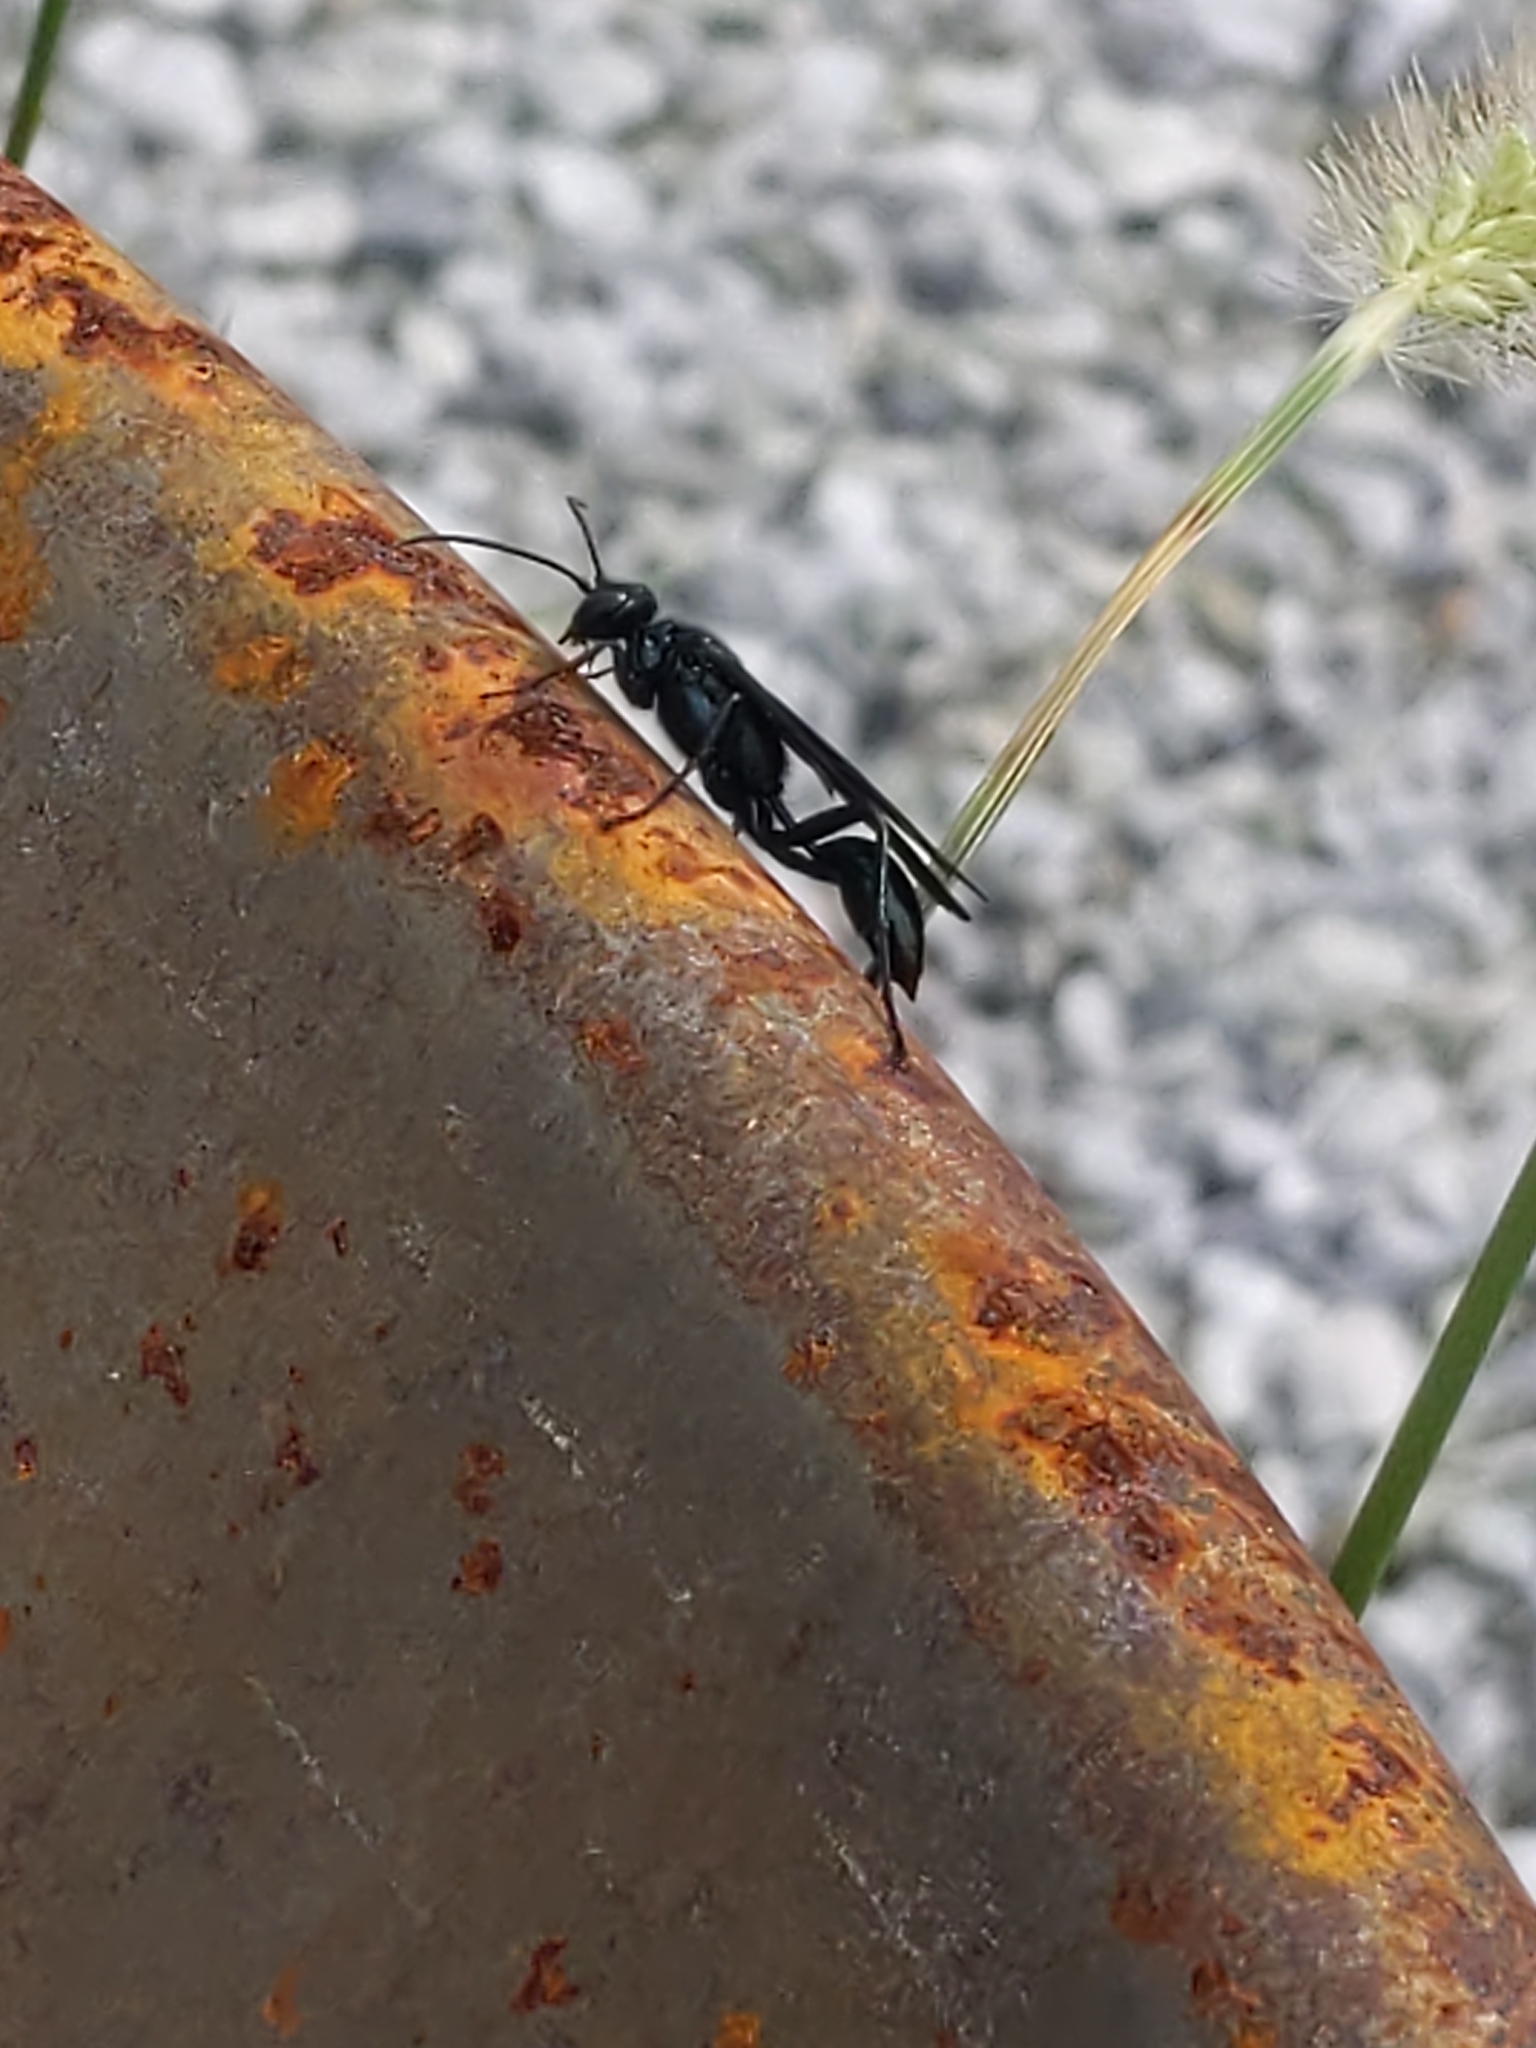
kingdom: Animalia
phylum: Arthropoda
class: Insecta
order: Hymenoptera
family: Sphecidae
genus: Chalybion
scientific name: Chalybion californicum
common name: Mud dauber
